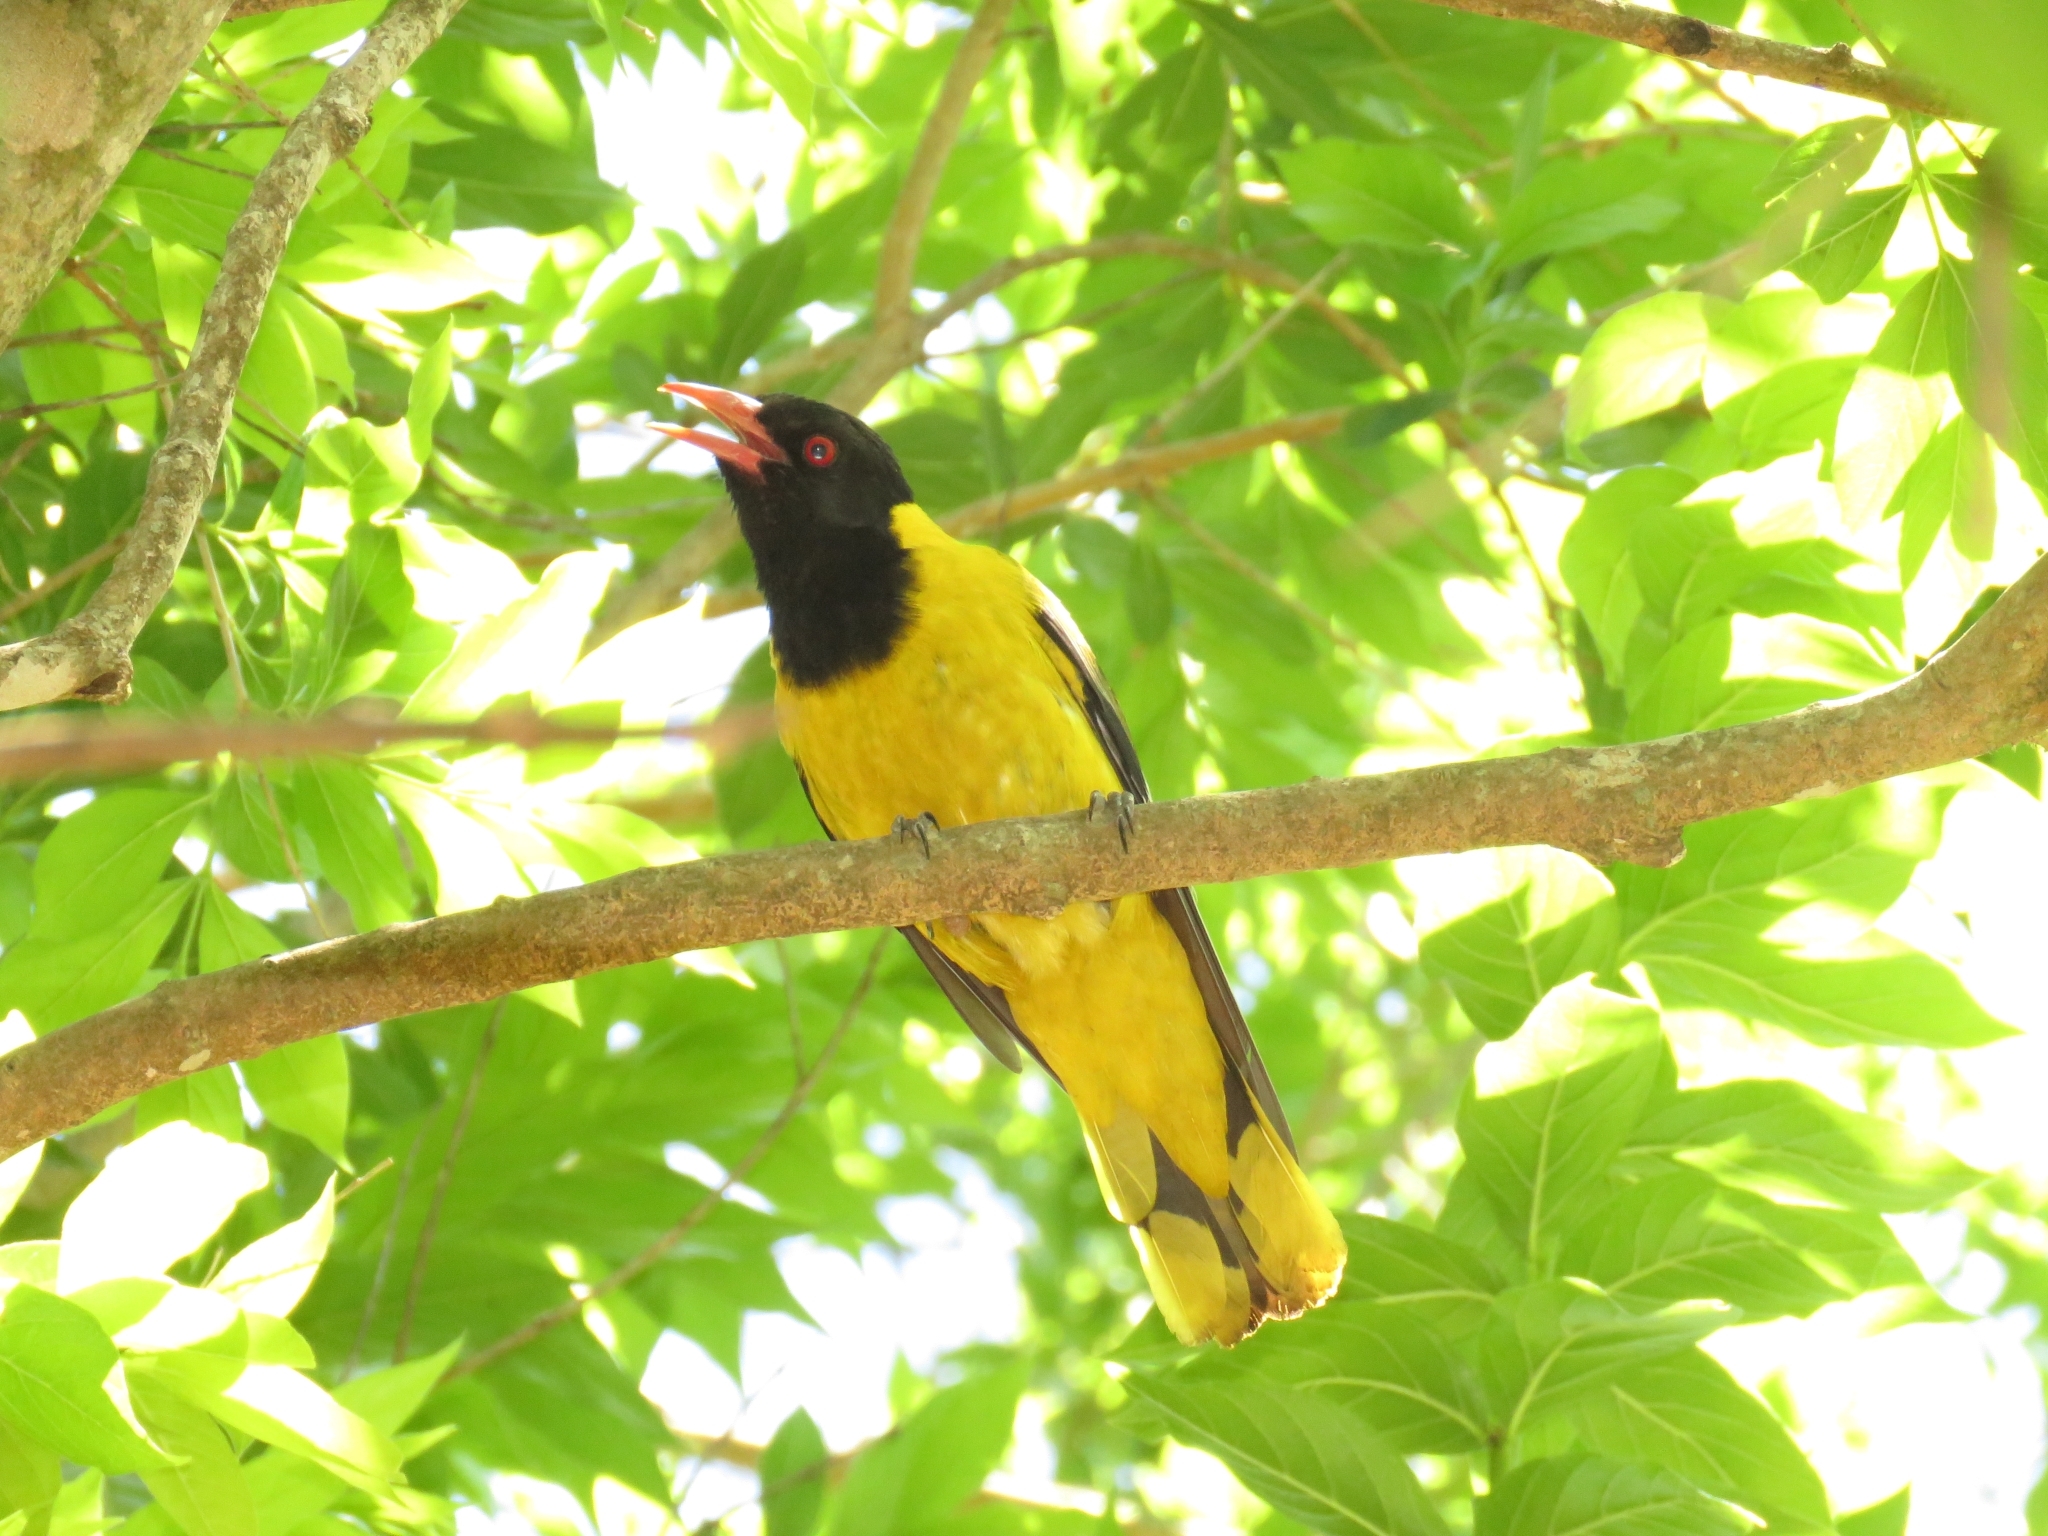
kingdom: Animalia
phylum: Chordata
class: Aves
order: Passeriformes
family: Oriolidae
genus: Oriolus
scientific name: Oriolus larvatus
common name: Black-headed oriole
